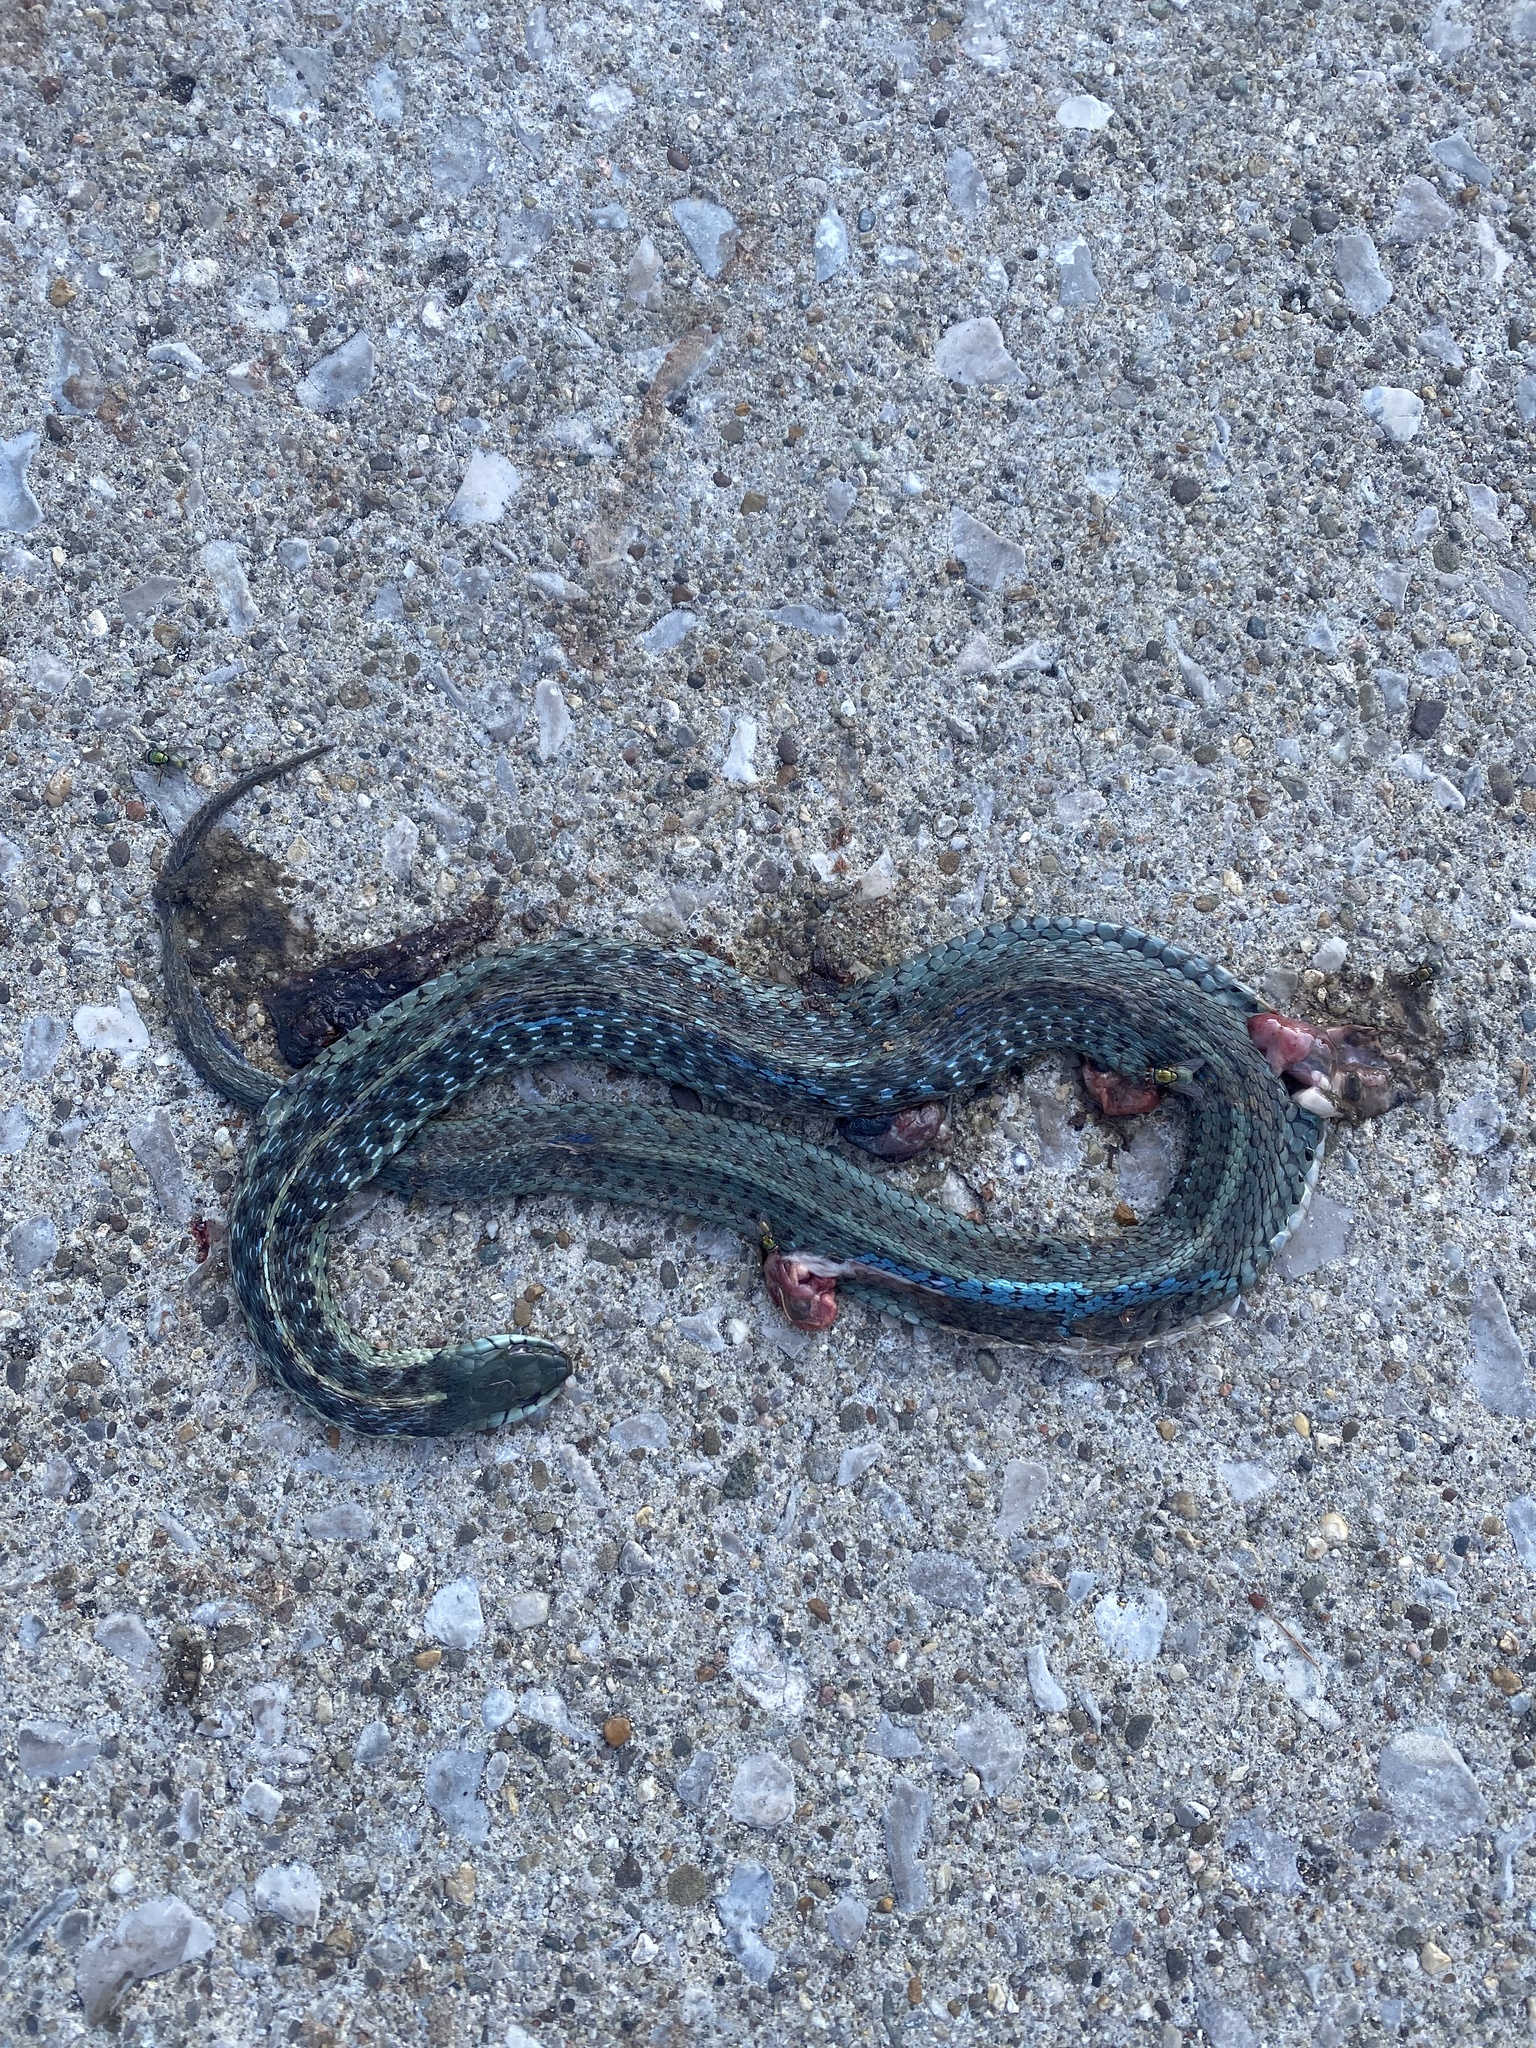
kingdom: Animalia
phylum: Chordata
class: Squamata
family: Colubridae
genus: Thamnophis
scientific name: Thamnophis sirtalis
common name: Common garter snake
